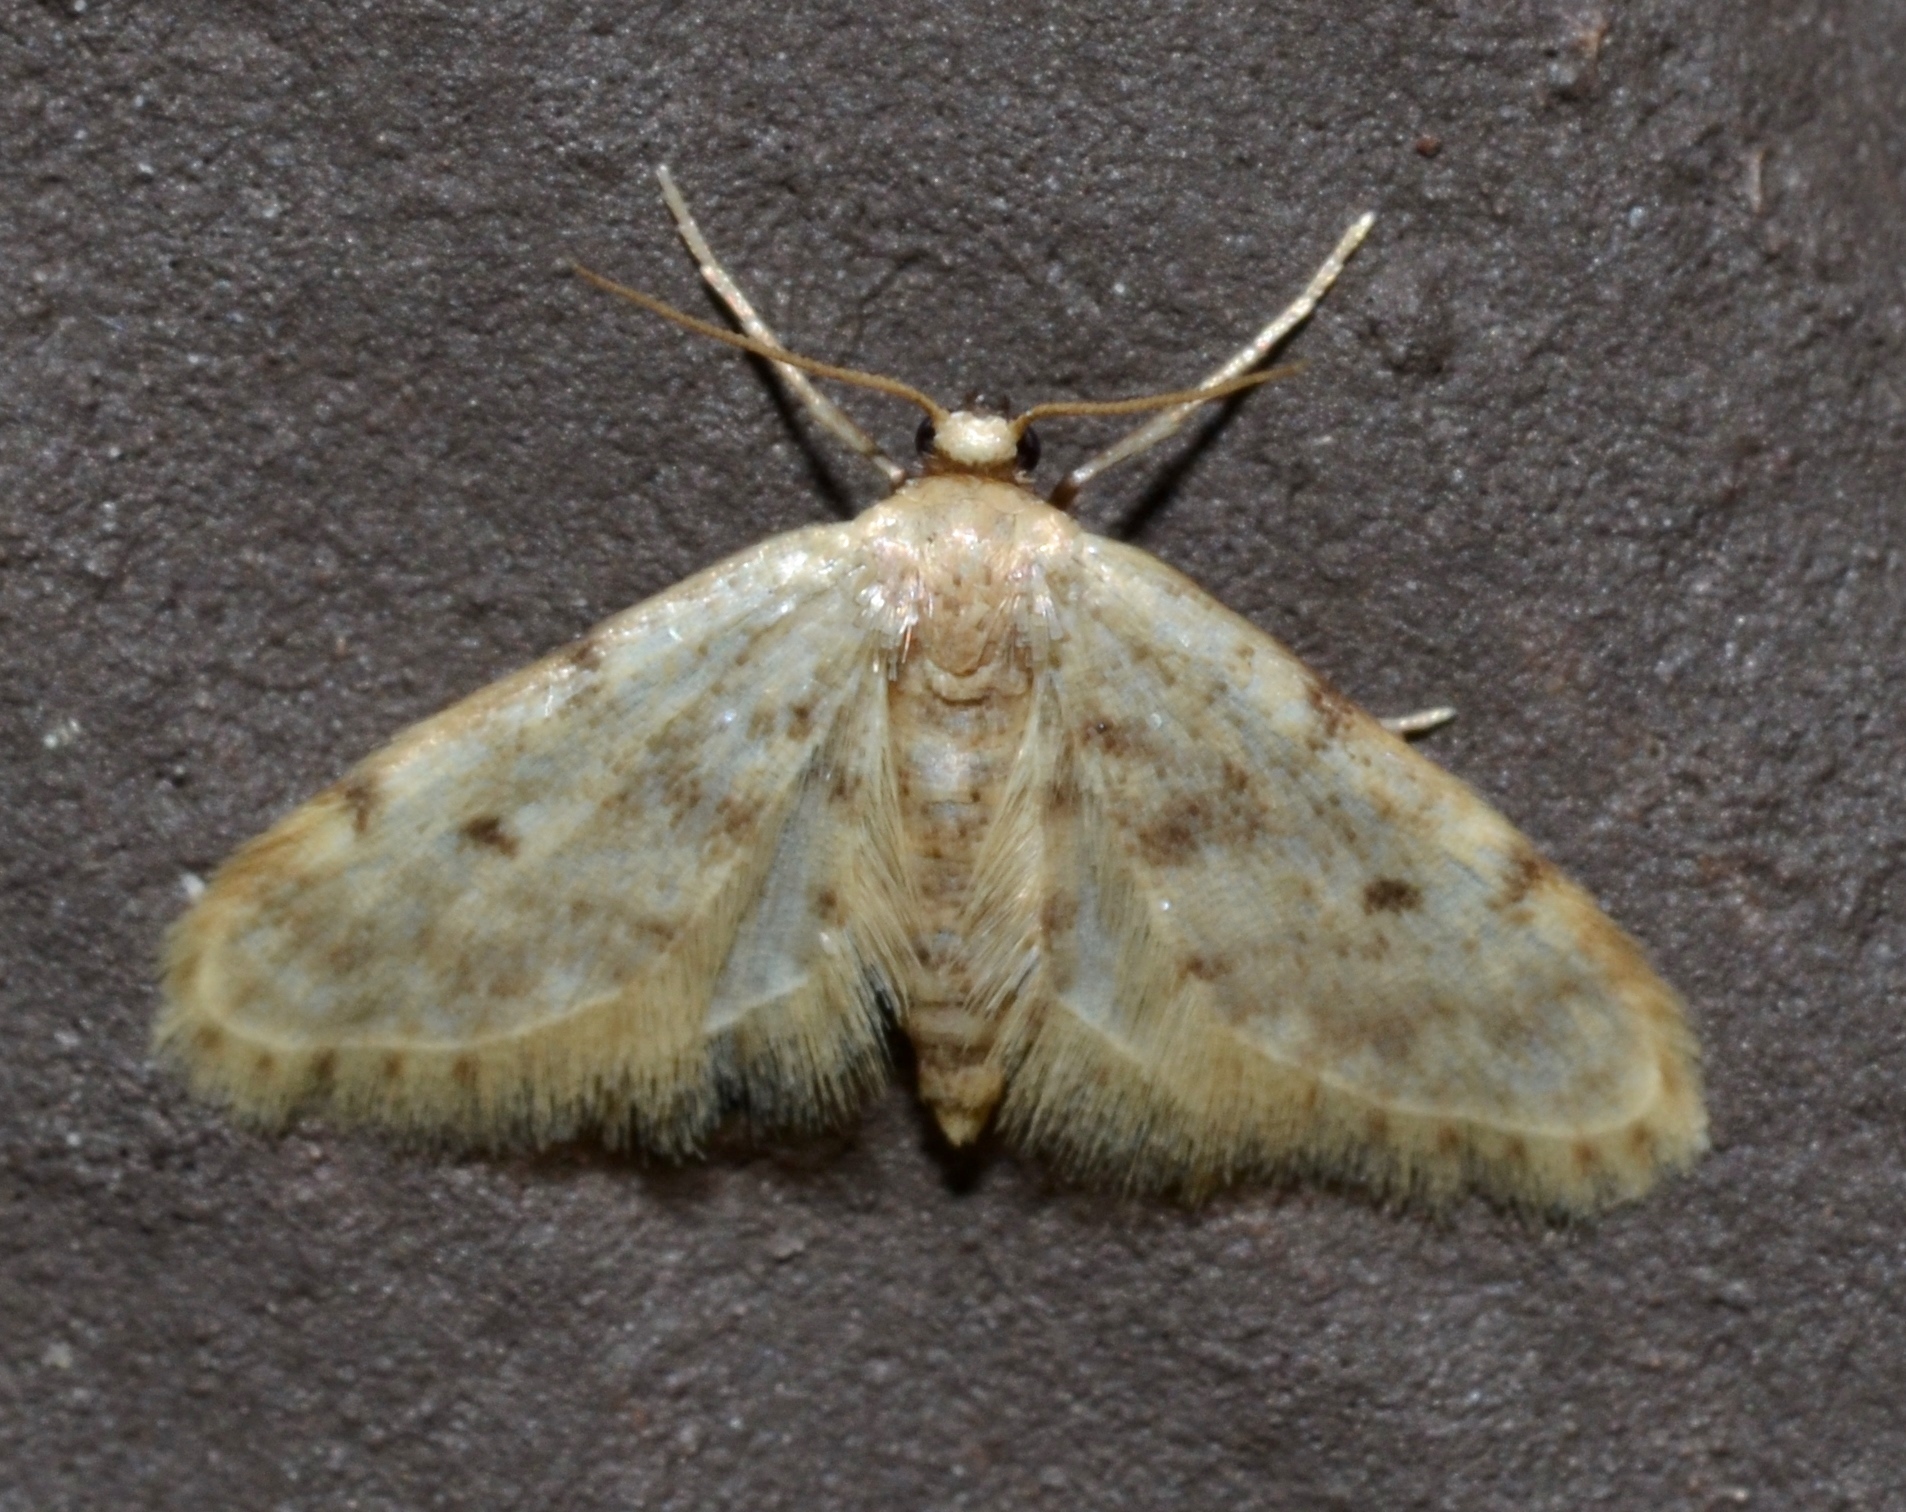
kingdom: Animalia
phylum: Arthropoda
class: Insecta
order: Lepidoptera
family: Geometridae
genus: Idaea
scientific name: Idaea bonifata
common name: Fortunate wave
